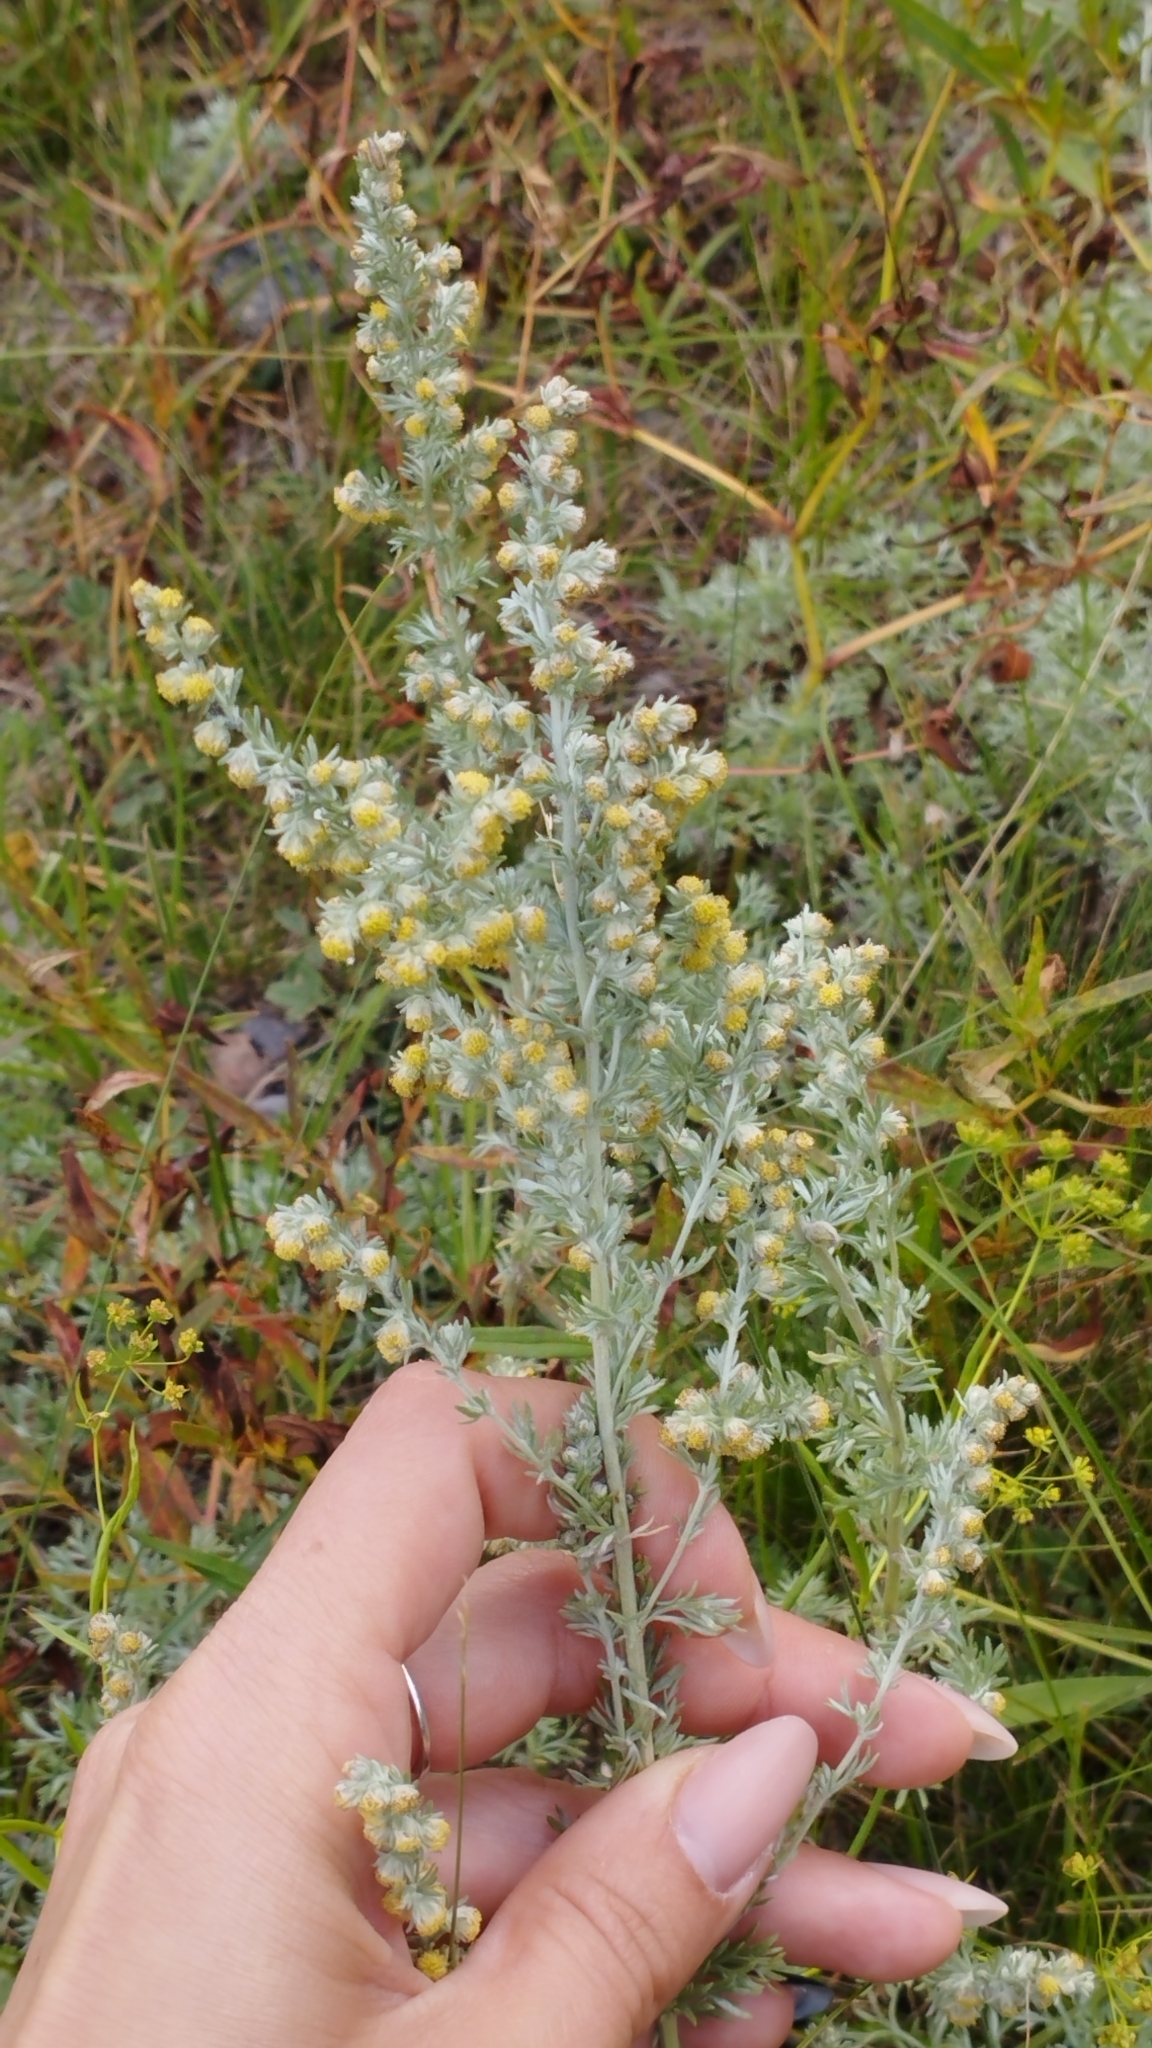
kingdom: Plantae
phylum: Tracheophyta
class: Magnoliopsida
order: Asterales
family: Asteraceae
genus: Artemisia
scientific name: Artemisia frigida
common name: Prairie sagewort
